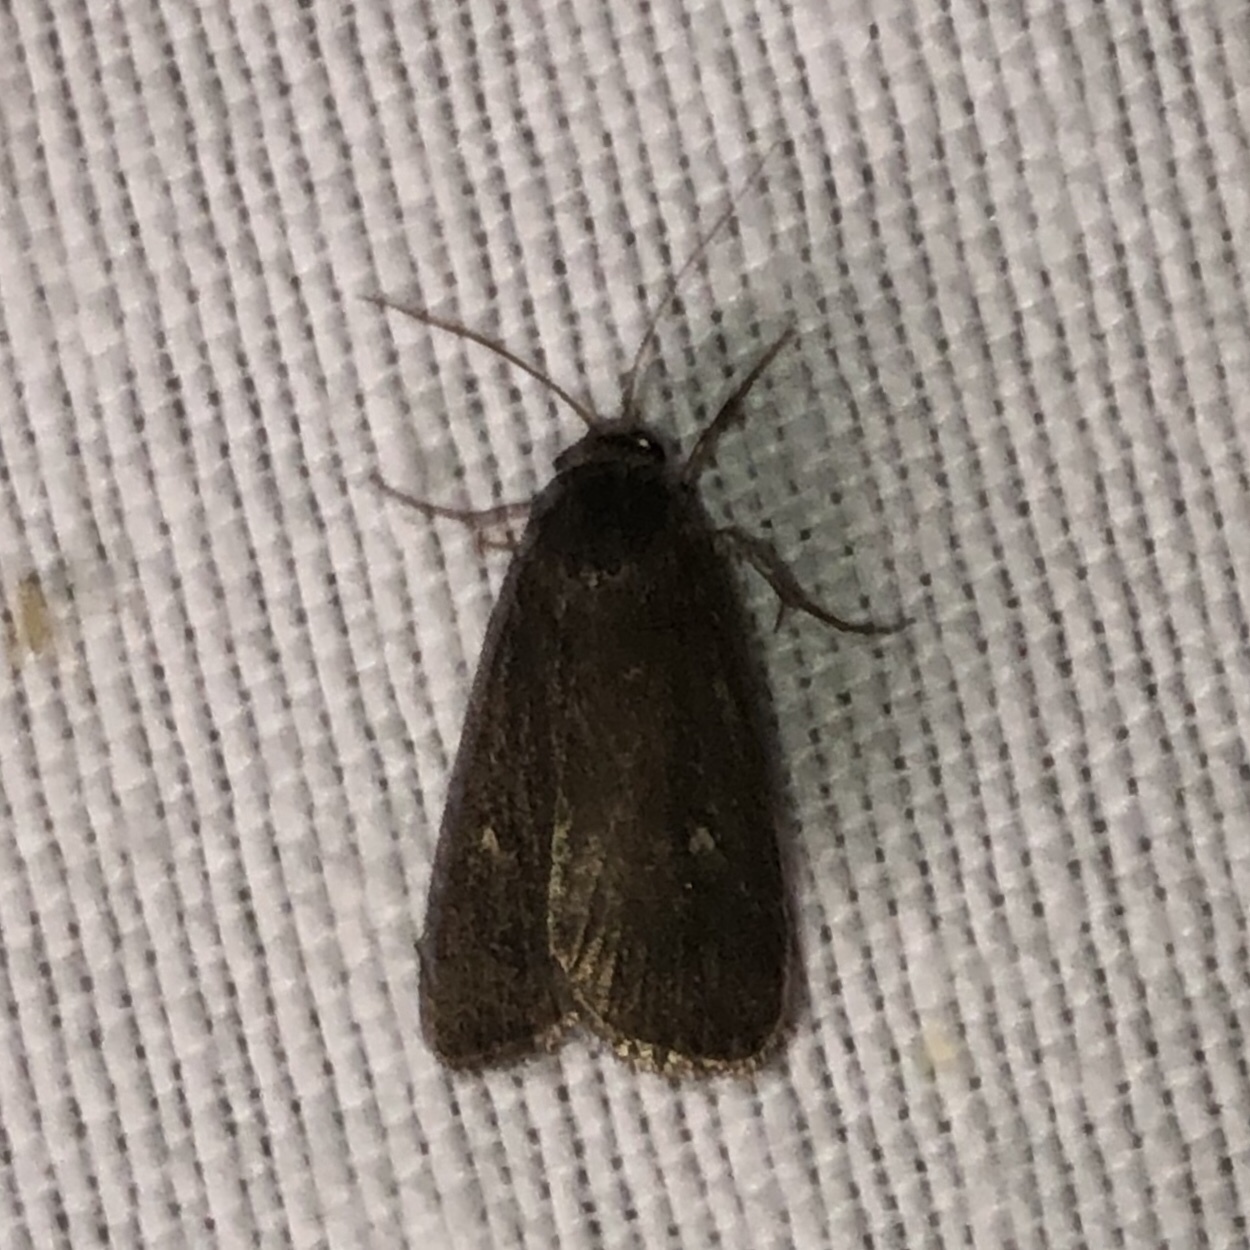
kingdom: Animalia
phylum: Arthropoda
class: Insecta
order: Lepidoptera
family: Noctuidae
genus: Proxenus
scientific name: Proxenus miranda
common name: Miranda moth
